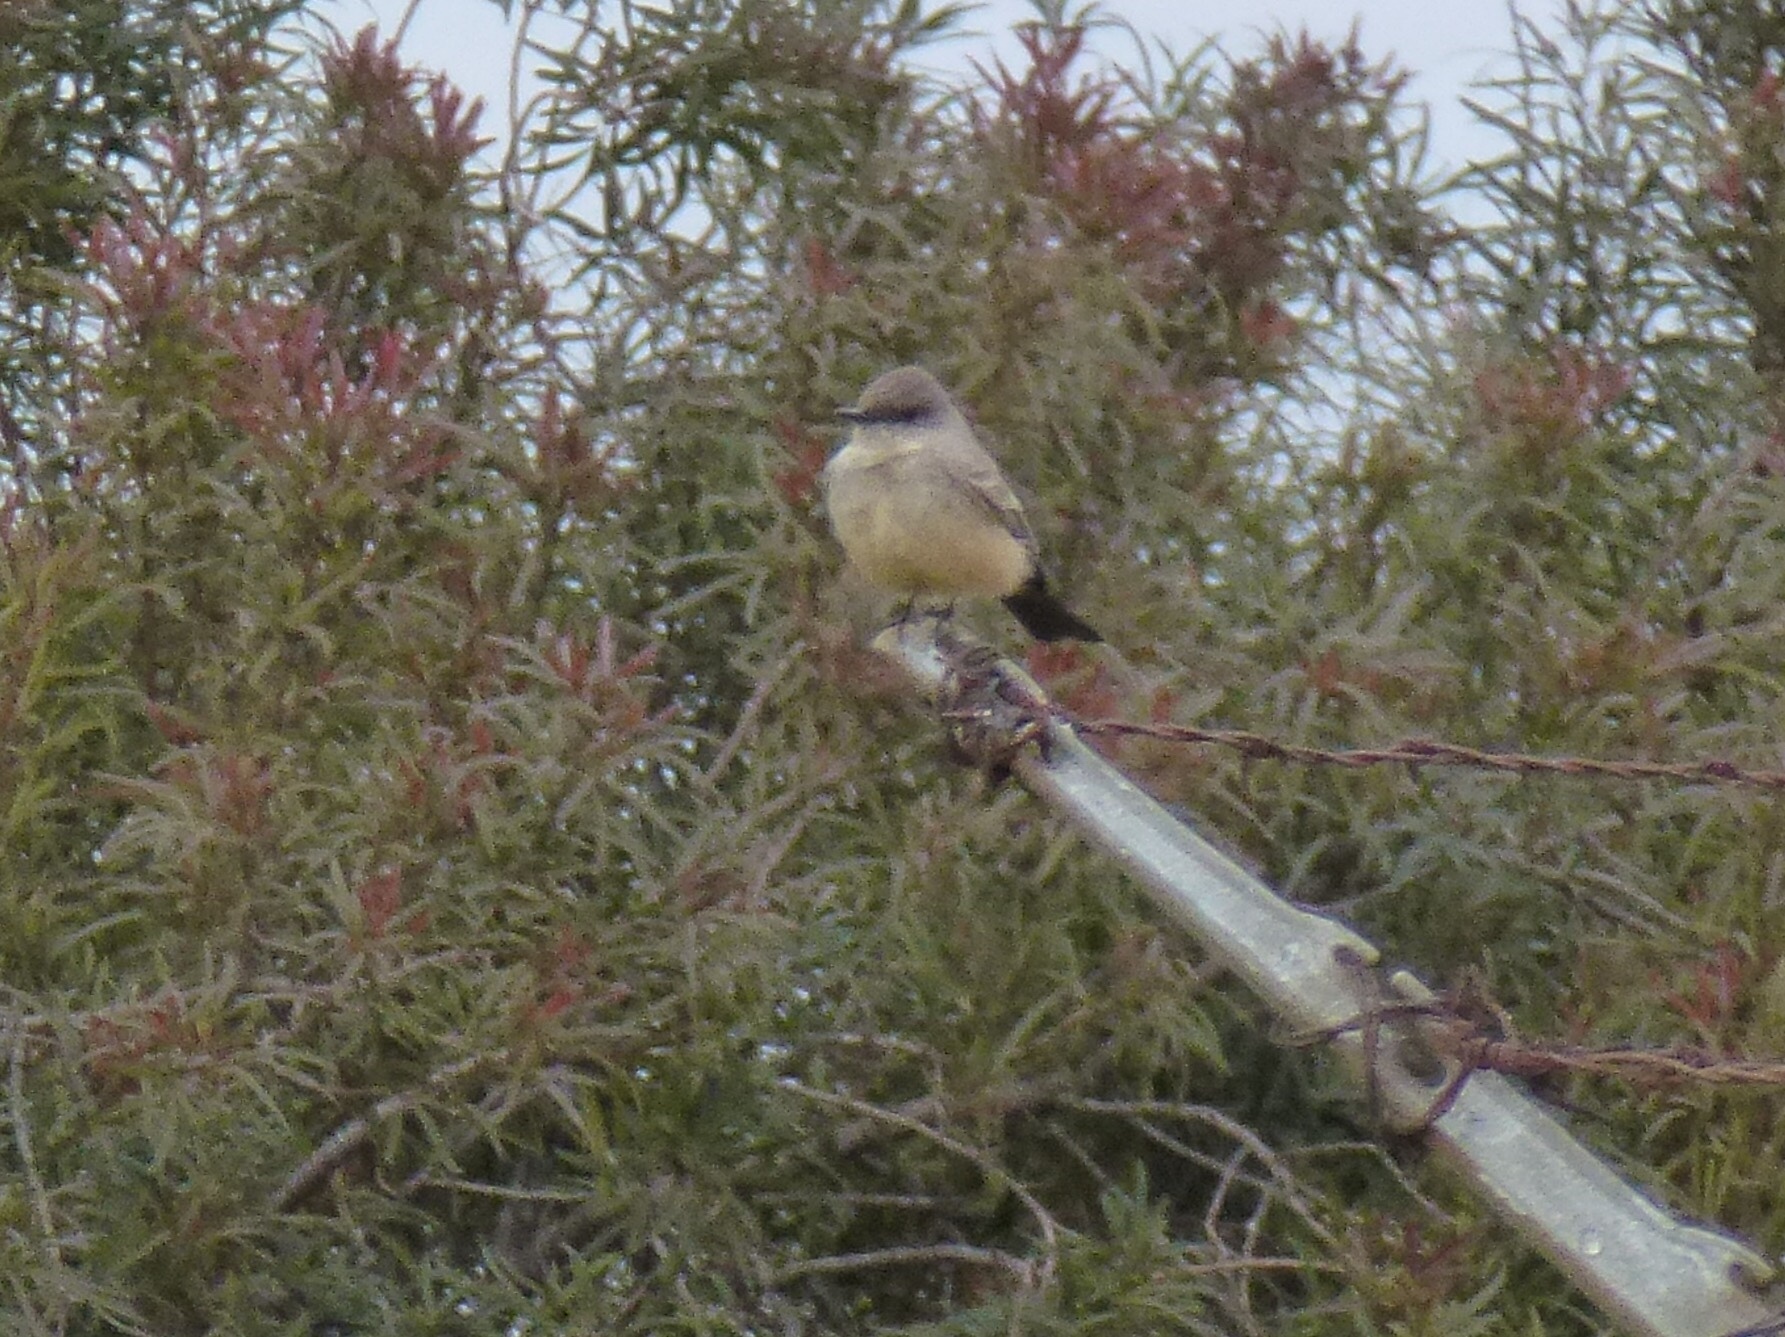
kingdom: Animalia
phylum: Chordata
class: Aves
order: Passeriformes
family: Tyrannidae
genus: Sayornis
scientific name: Sayornis saya
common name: Say's phoebe
